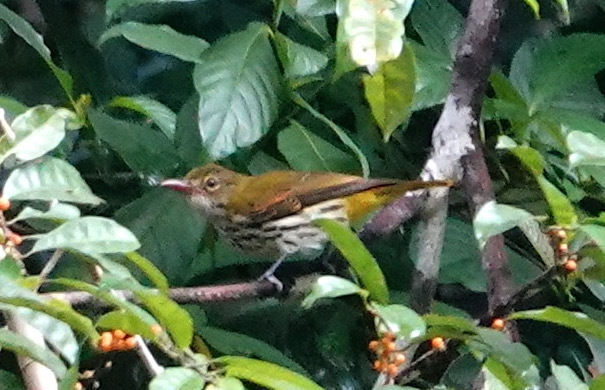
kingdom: Animalia
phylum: Chordata
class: Aves
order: Passeriformes
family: Oriolidae
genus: Oriolus
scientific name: Oriolus xanthonotus
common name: Dark-throated oriole
